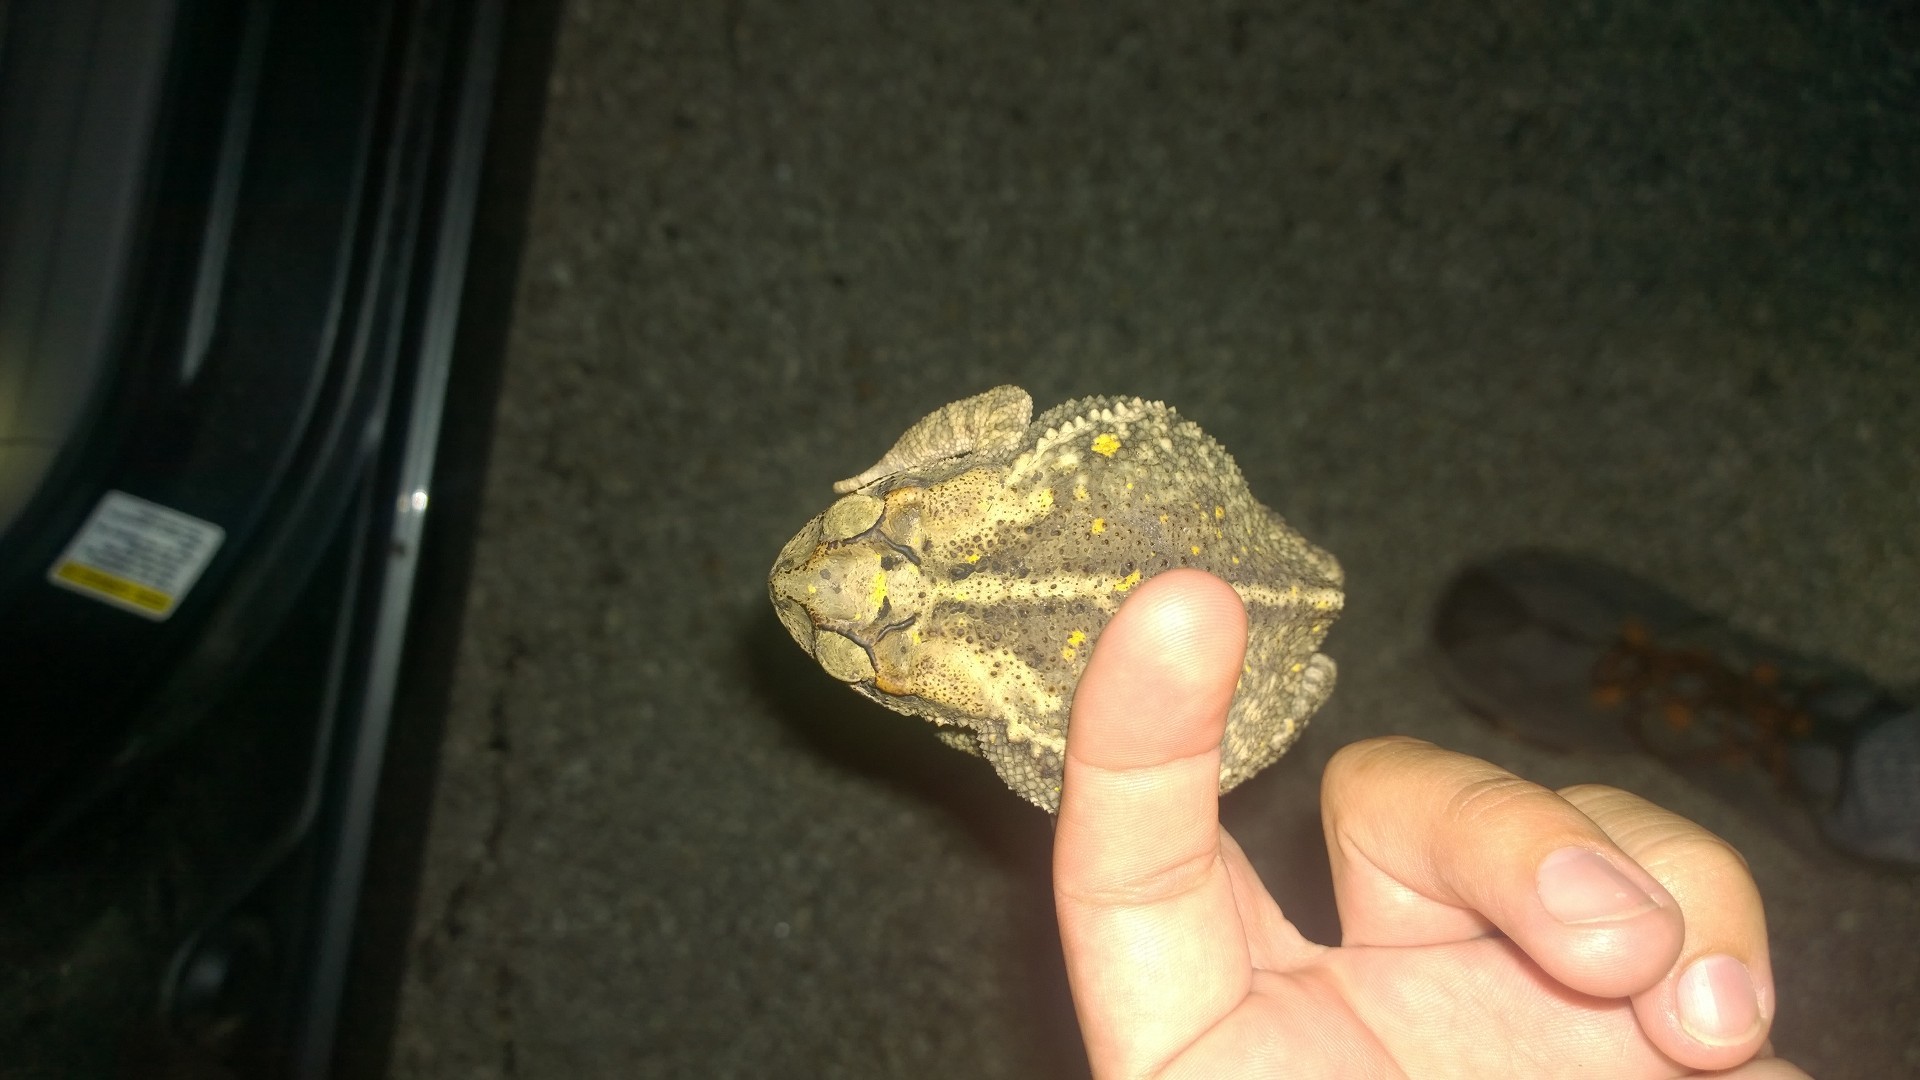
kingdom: Animalia
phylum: Chordata
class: Amphibia
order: Anura
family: Bufonidae
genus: Incilius
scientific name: Incilius nebulifer
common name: Gulf coast toad
